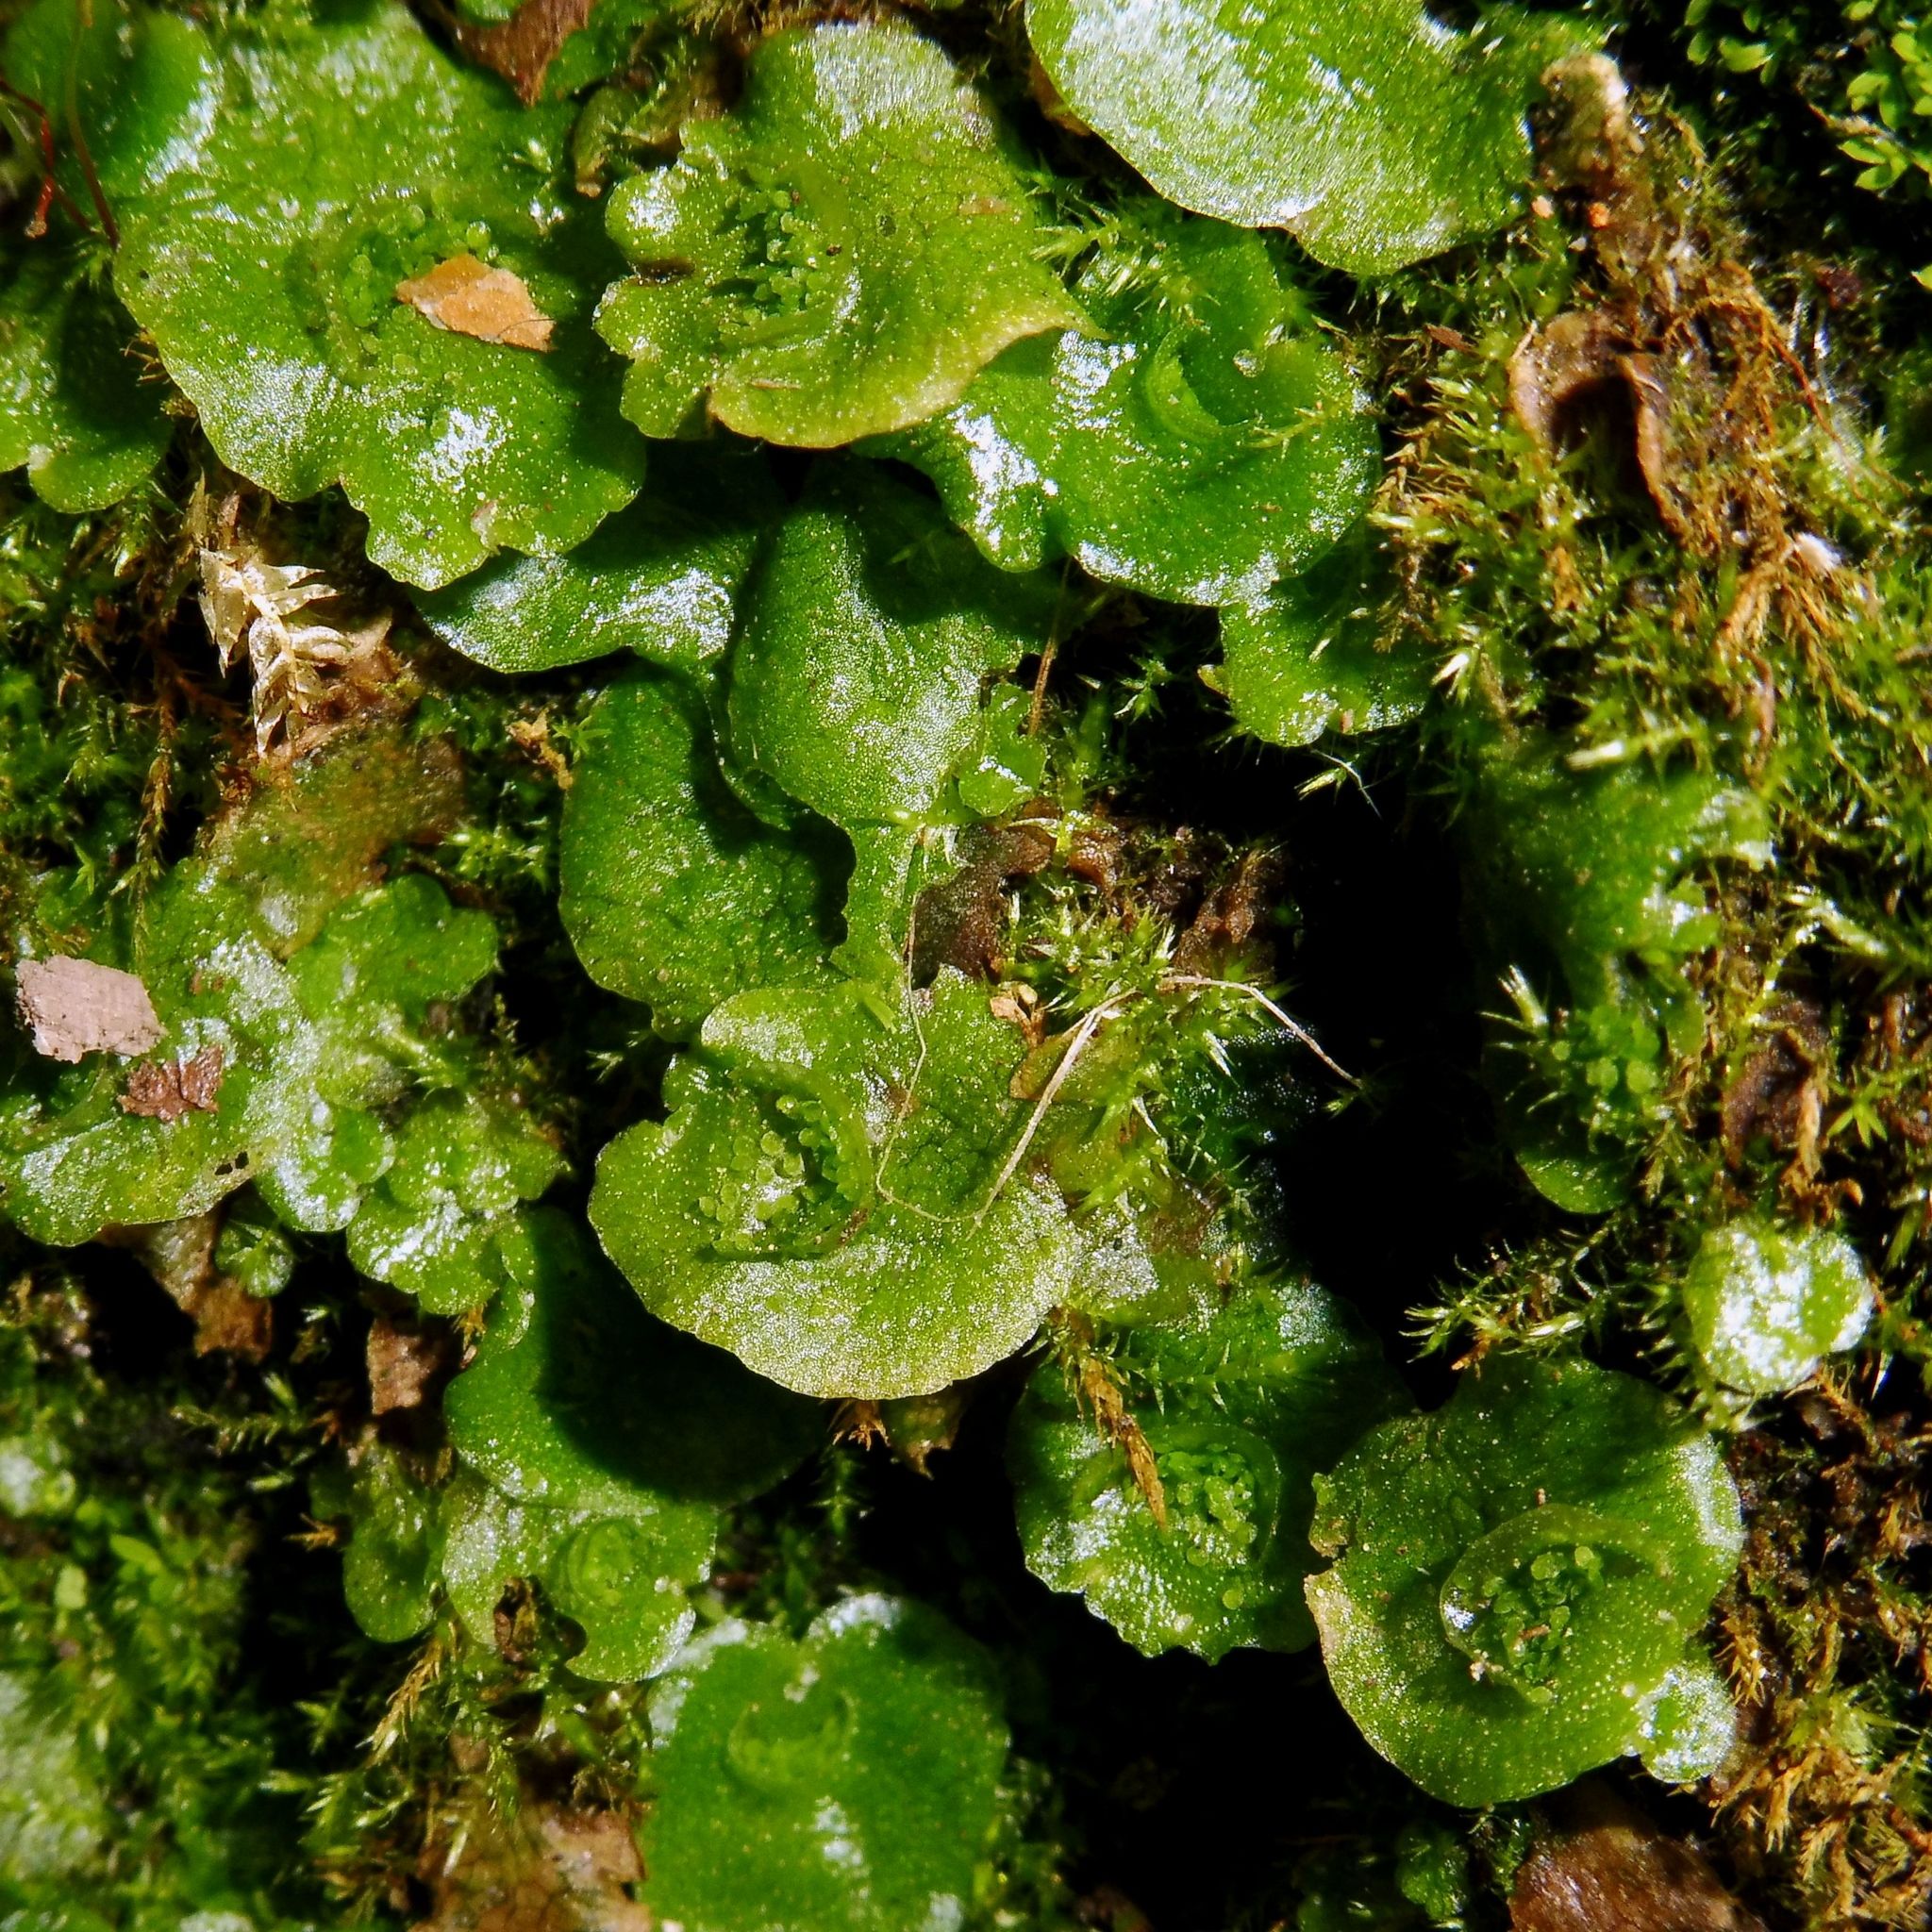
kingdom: Plantae
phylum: Marchantiophyta
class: Marchantiopsida
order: Lunulariales
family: Lunulariaceae
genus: Lunularia
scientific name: Lunularia cruciata
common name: Crescent-cup liverwort
